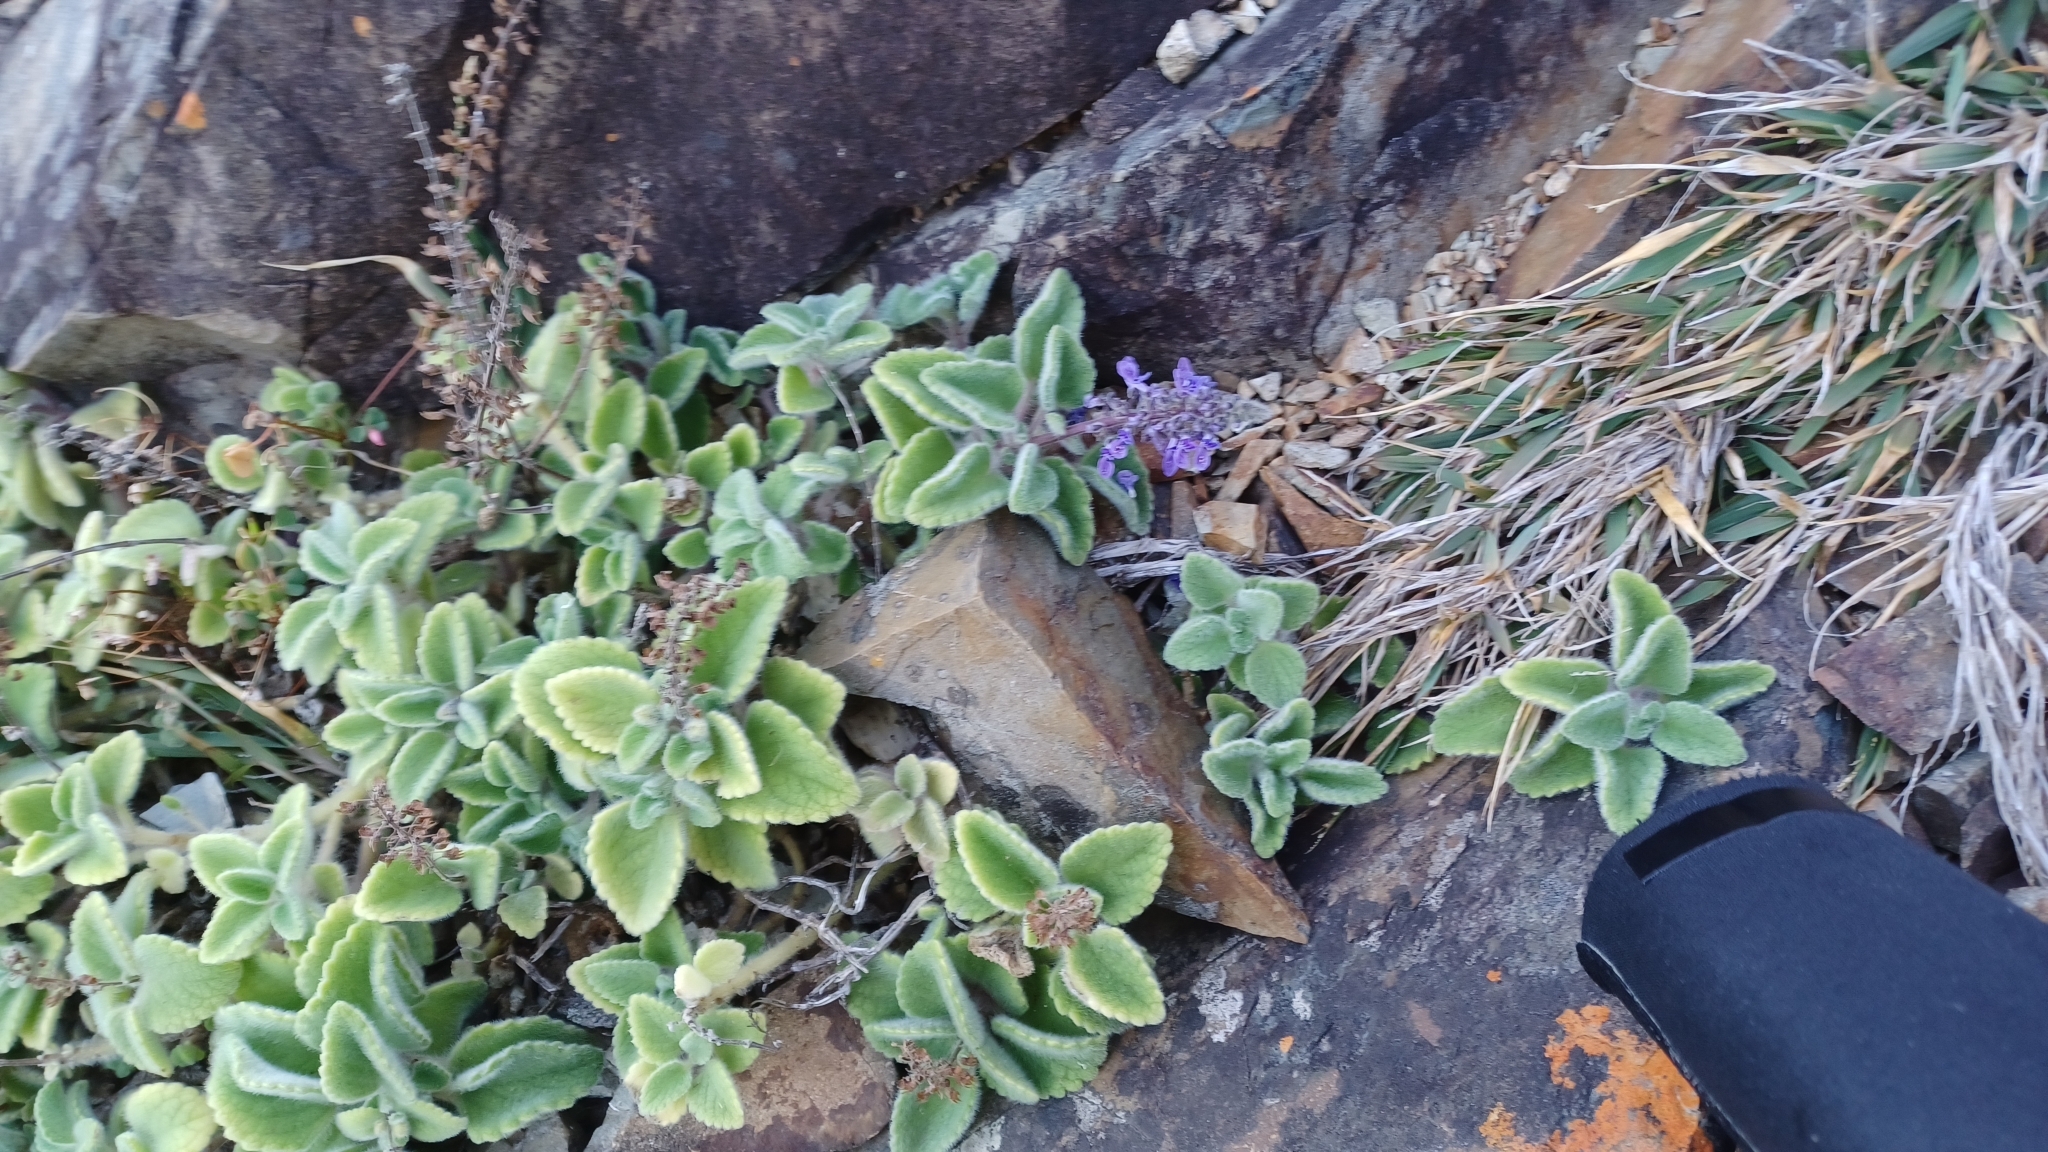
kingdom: Plantae
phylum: Tracheophyta
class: Magnoliopsida
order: Lamiales
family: Lamiaceae
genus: Coleus
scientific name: Coleus cremnus
